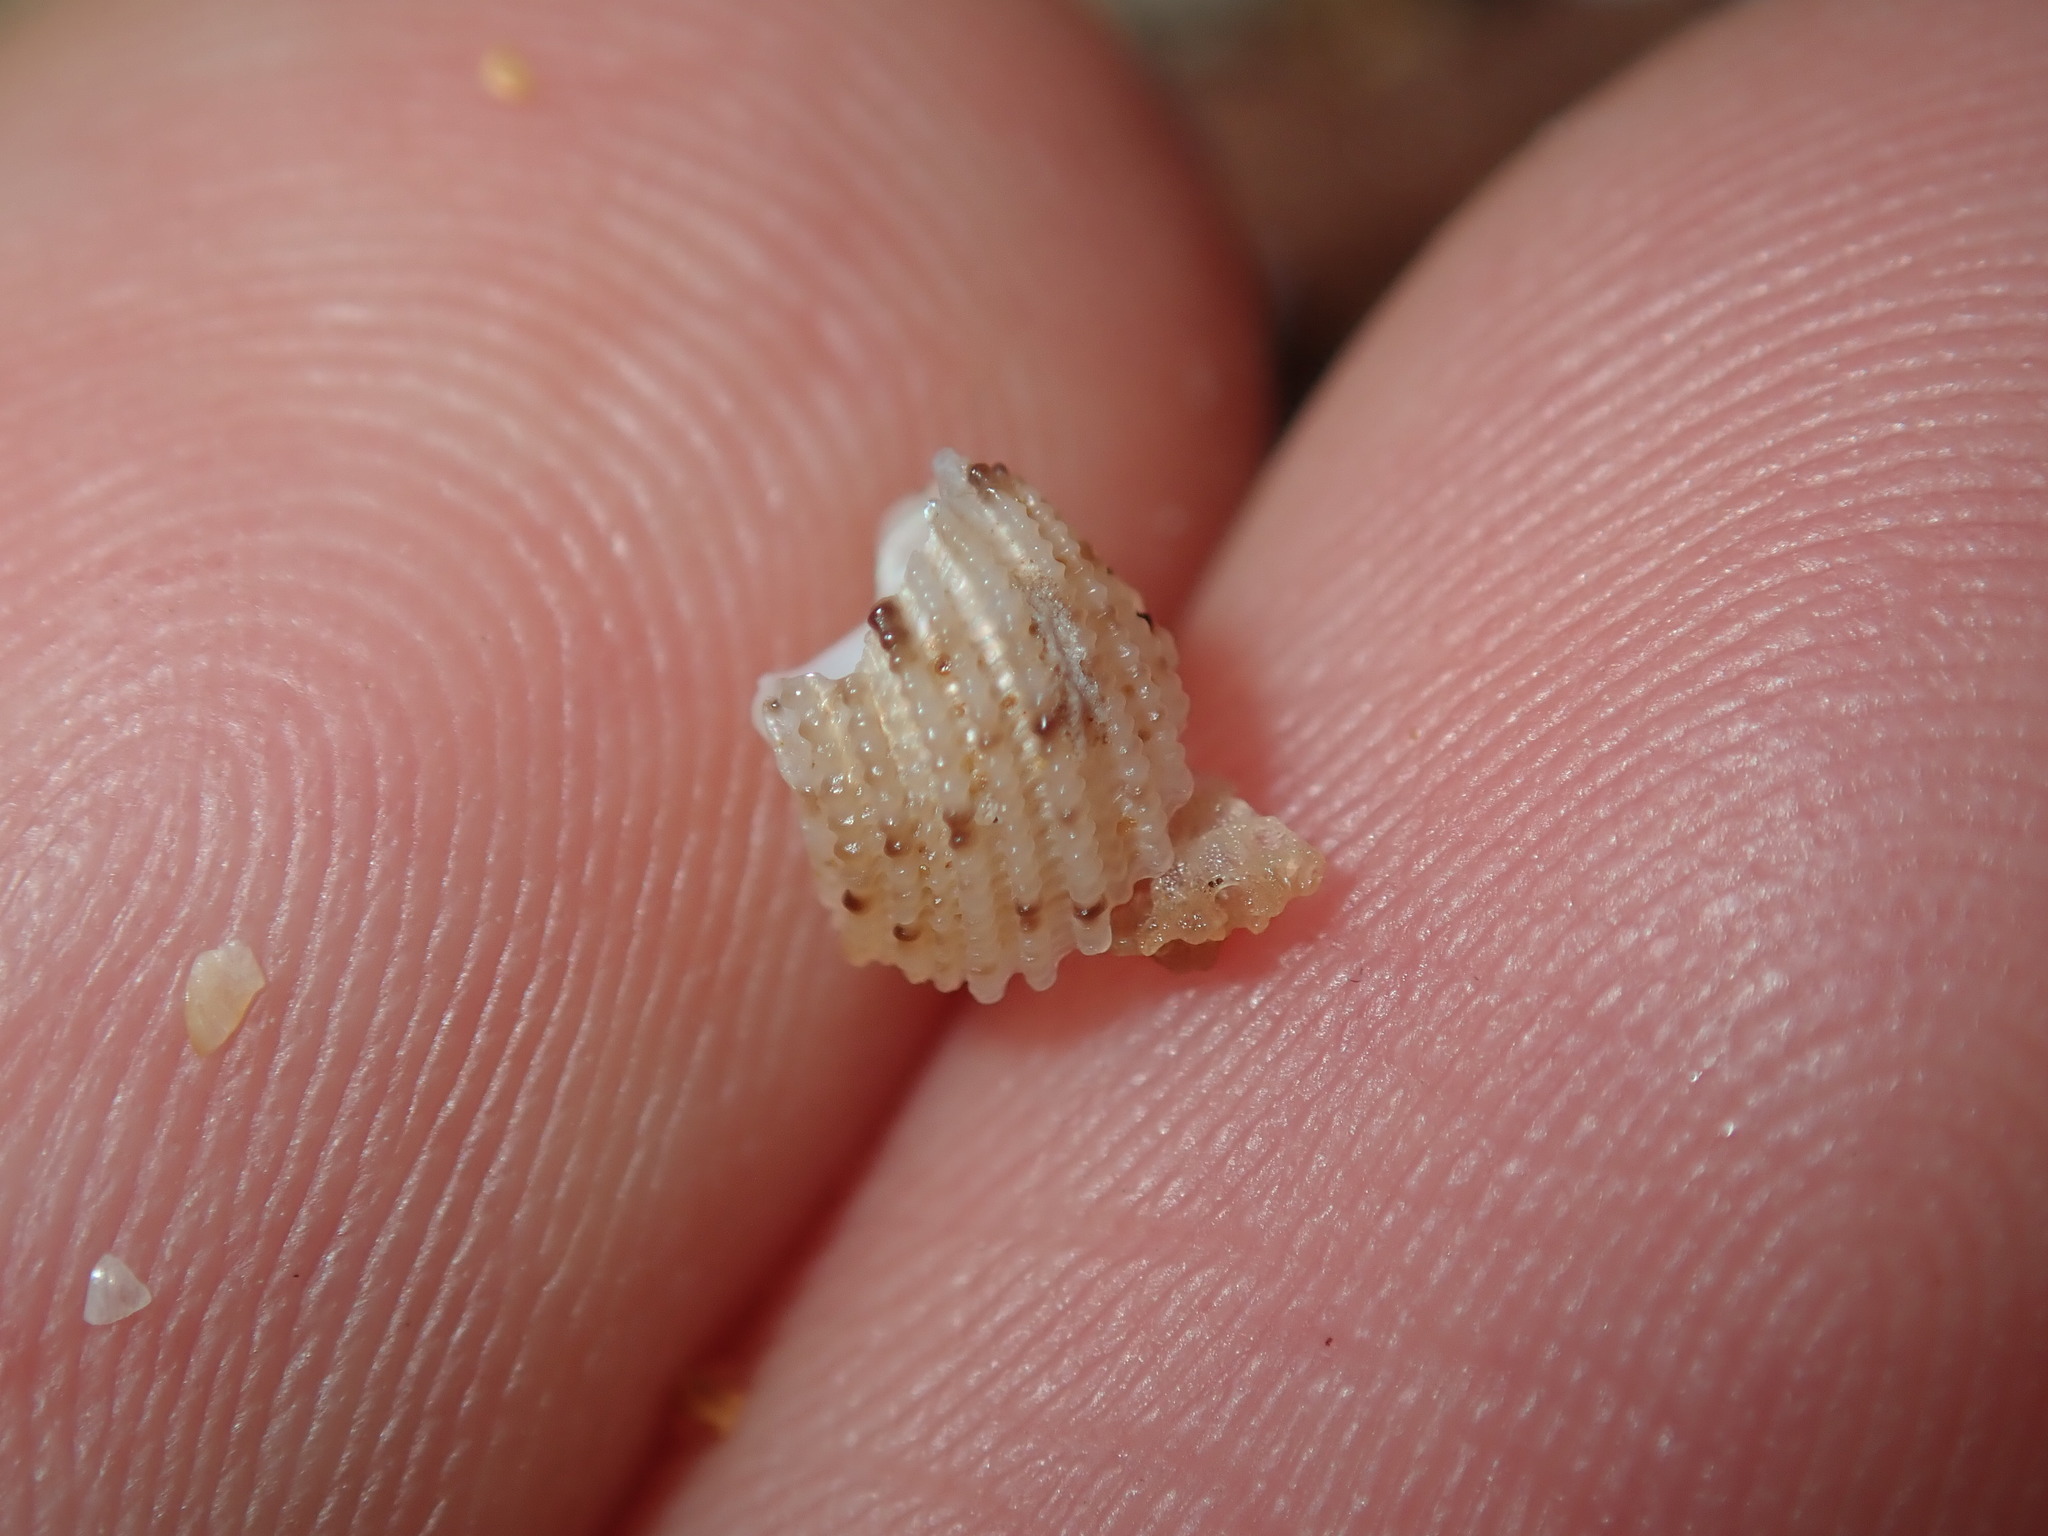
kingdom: Animalia
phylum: Mollusca
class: Gastropoda
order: Seguenziida
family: Chilodontaidae
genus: Herpetopoma
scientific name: Herpetopoma aspersum
